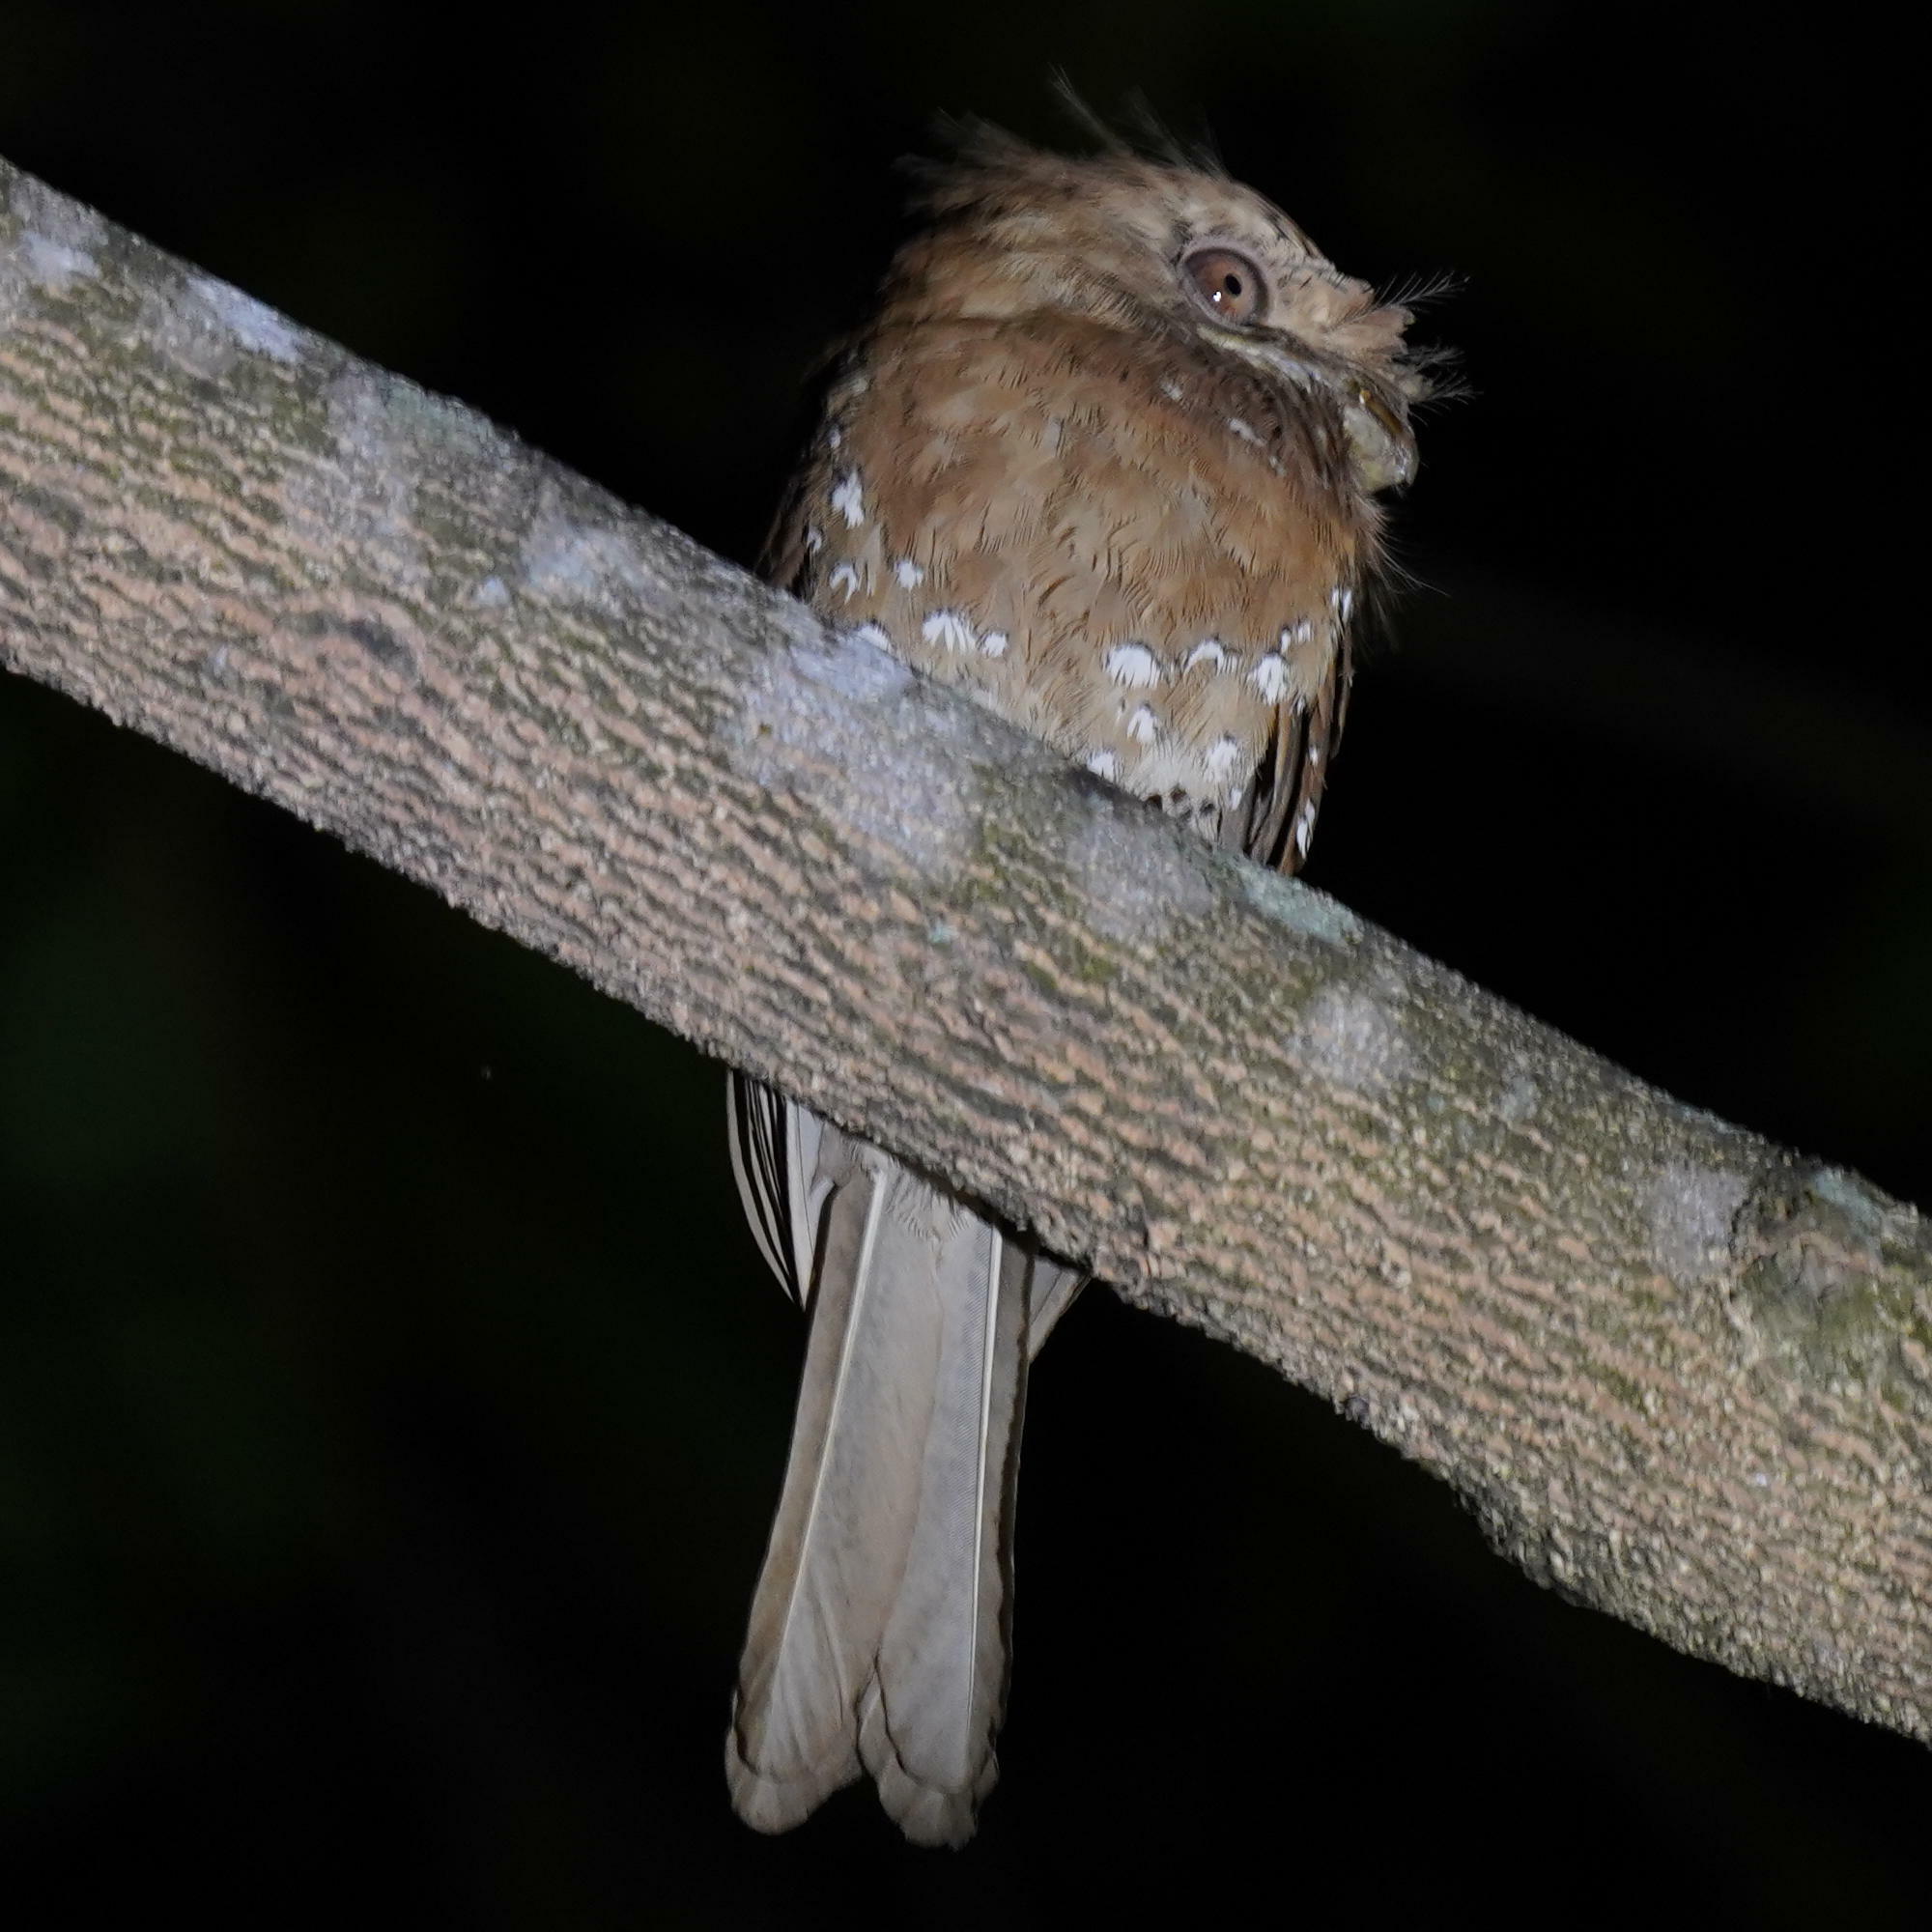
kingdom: Animalia
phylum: Chordata
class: Aves
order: Caprimulgiformes
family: Podargidae
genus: Batrachostomus
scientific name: Batrachostomus moniliger
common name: Sri lanka frogmouth
